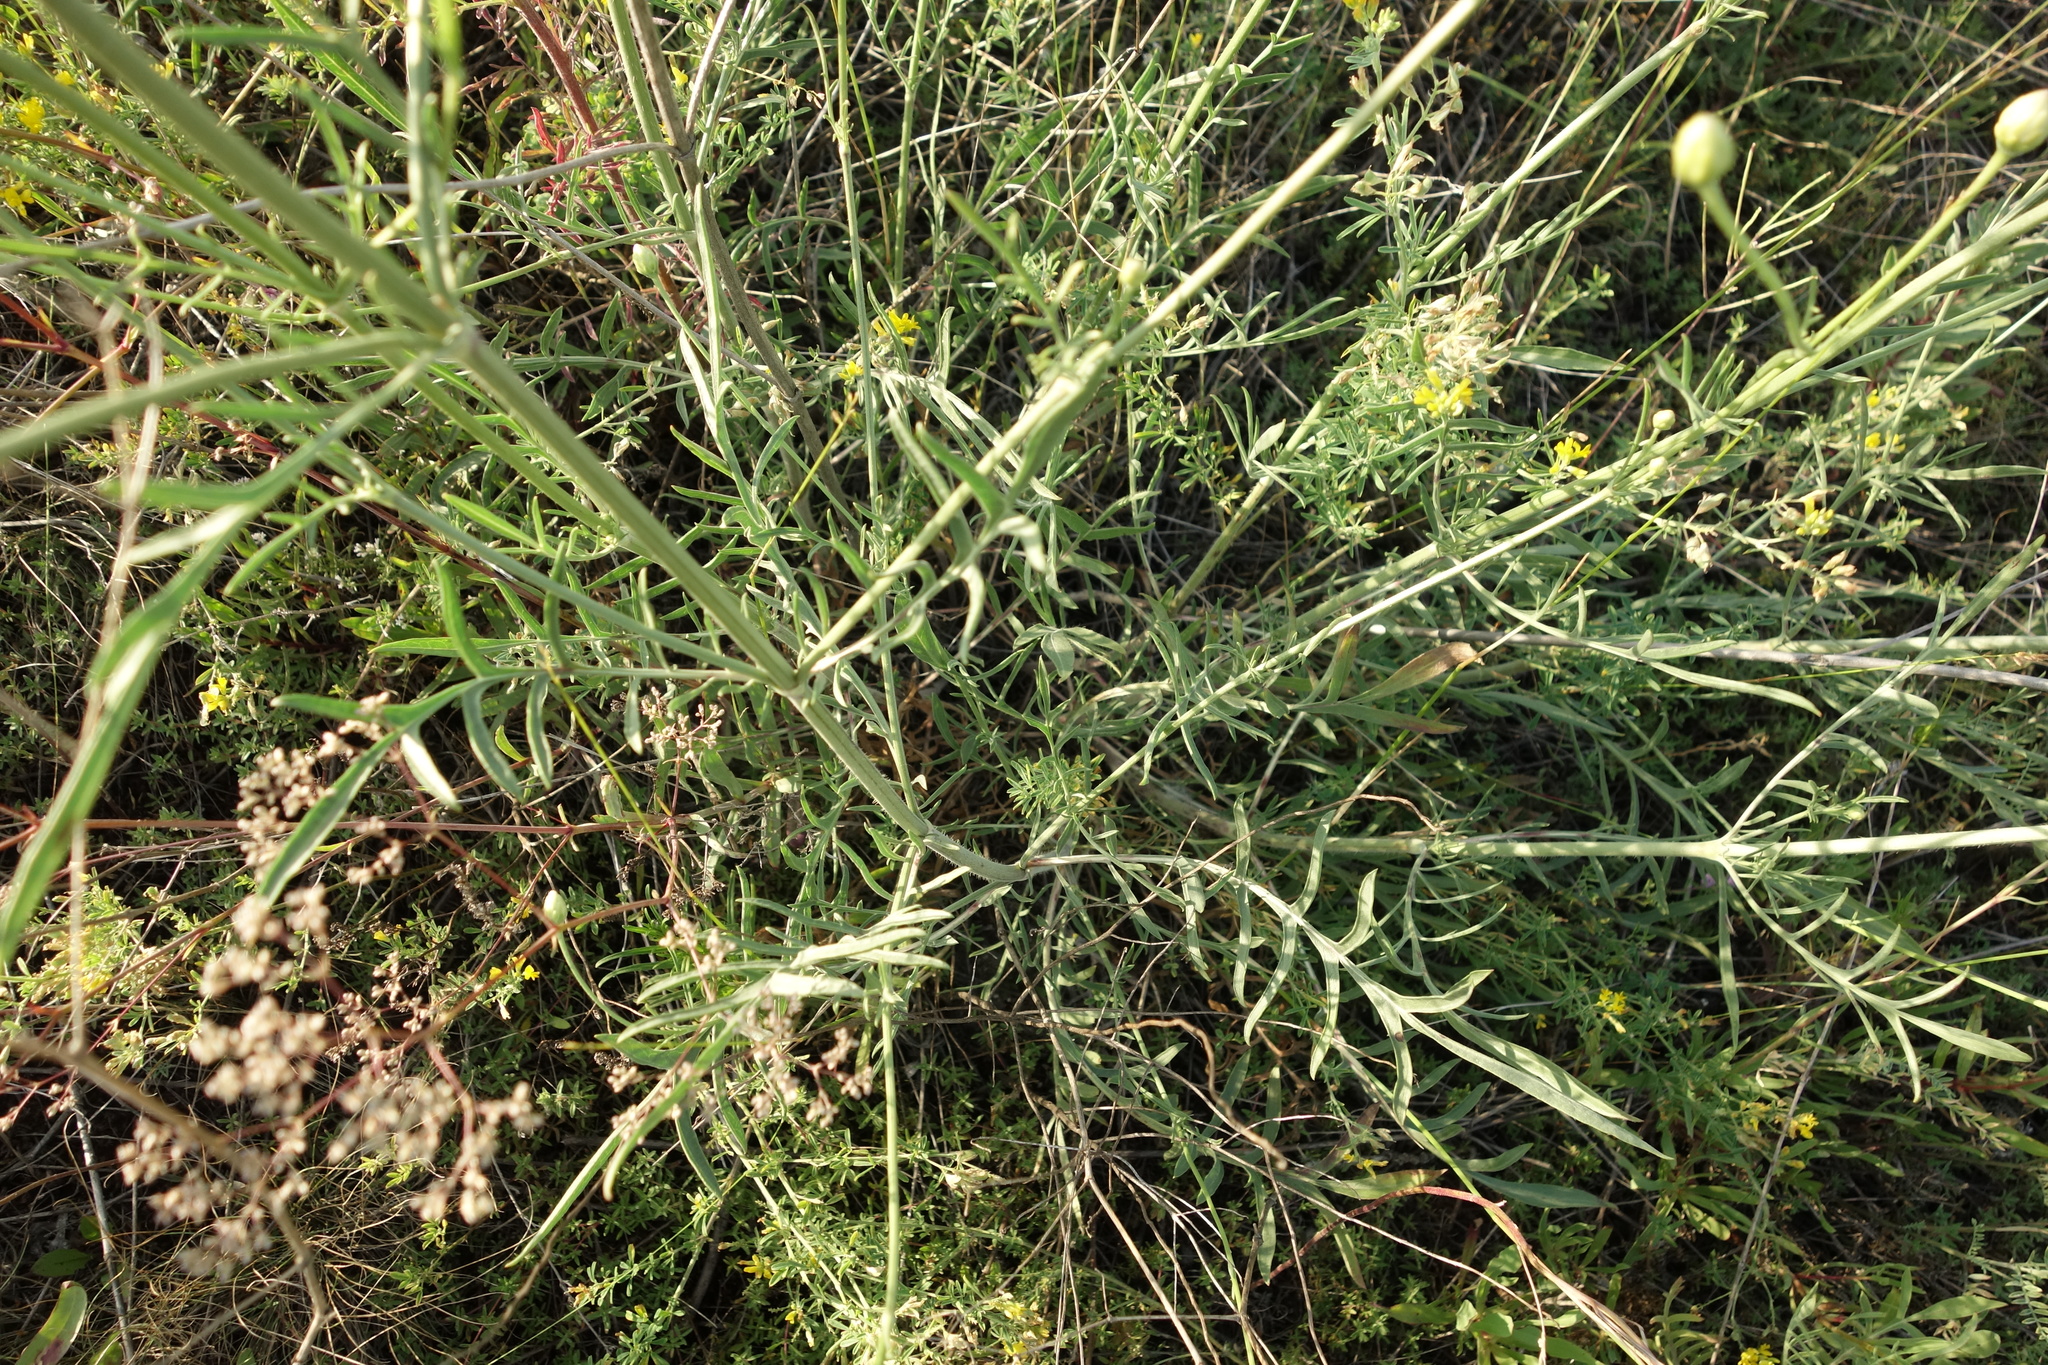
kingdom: Plantae
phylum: Tracheophyta
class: Magnoliopsida
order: Dipsacales
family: Caprifoliaceae
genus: Cephalaria
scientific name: Cephalaria uralensis
